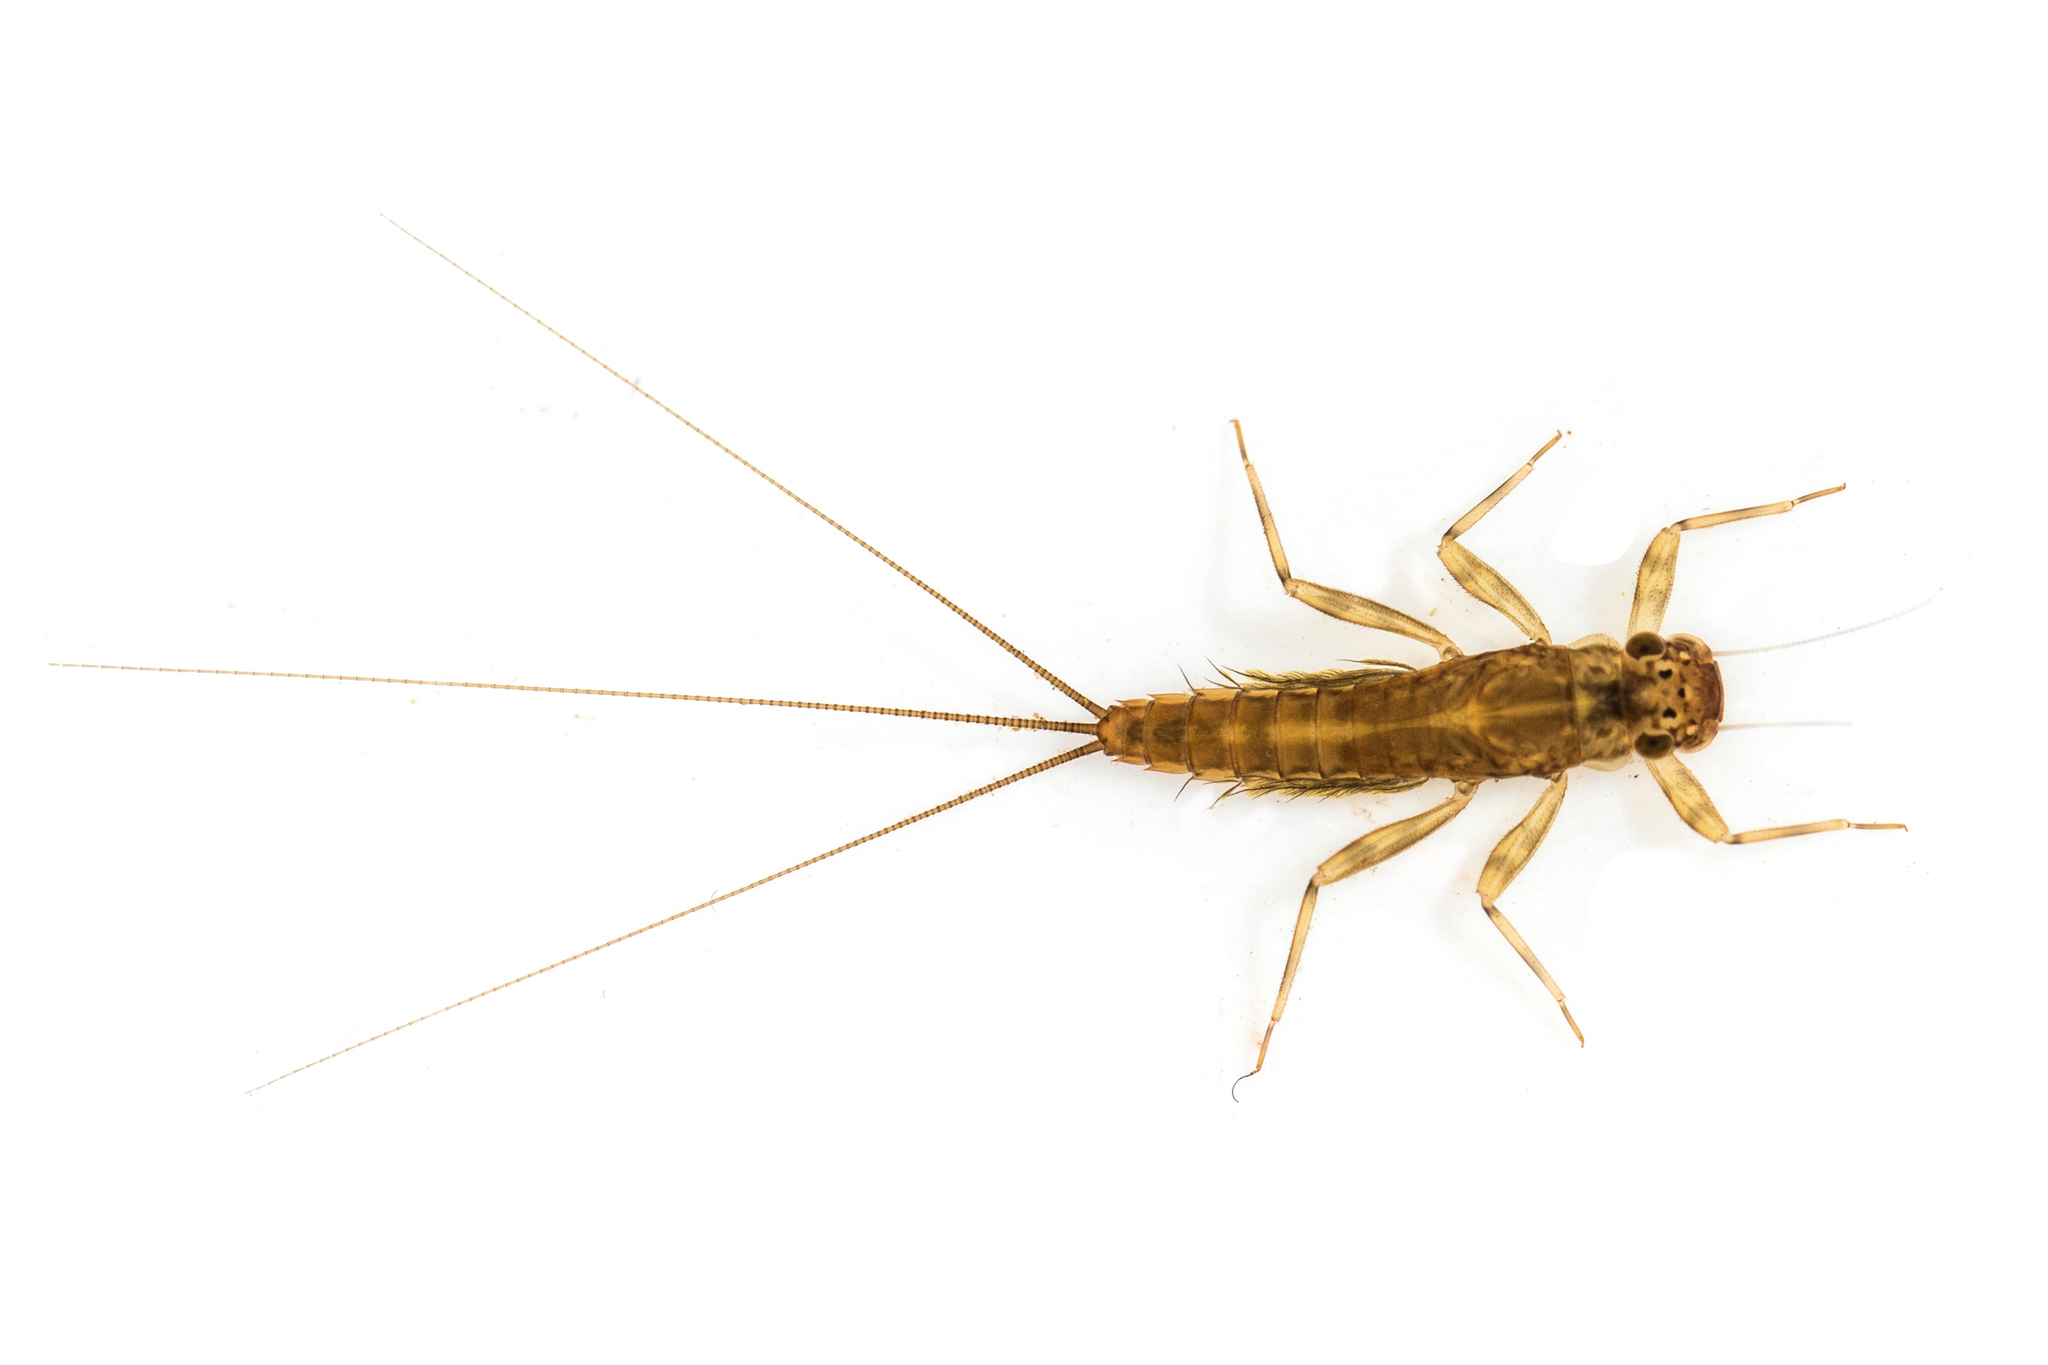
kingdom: Animalia
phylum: Arthropoda
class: Insecta
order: Ephemeroptera
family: Leptophlebiidae
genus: Tepakia
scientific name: Tepakia caligata
